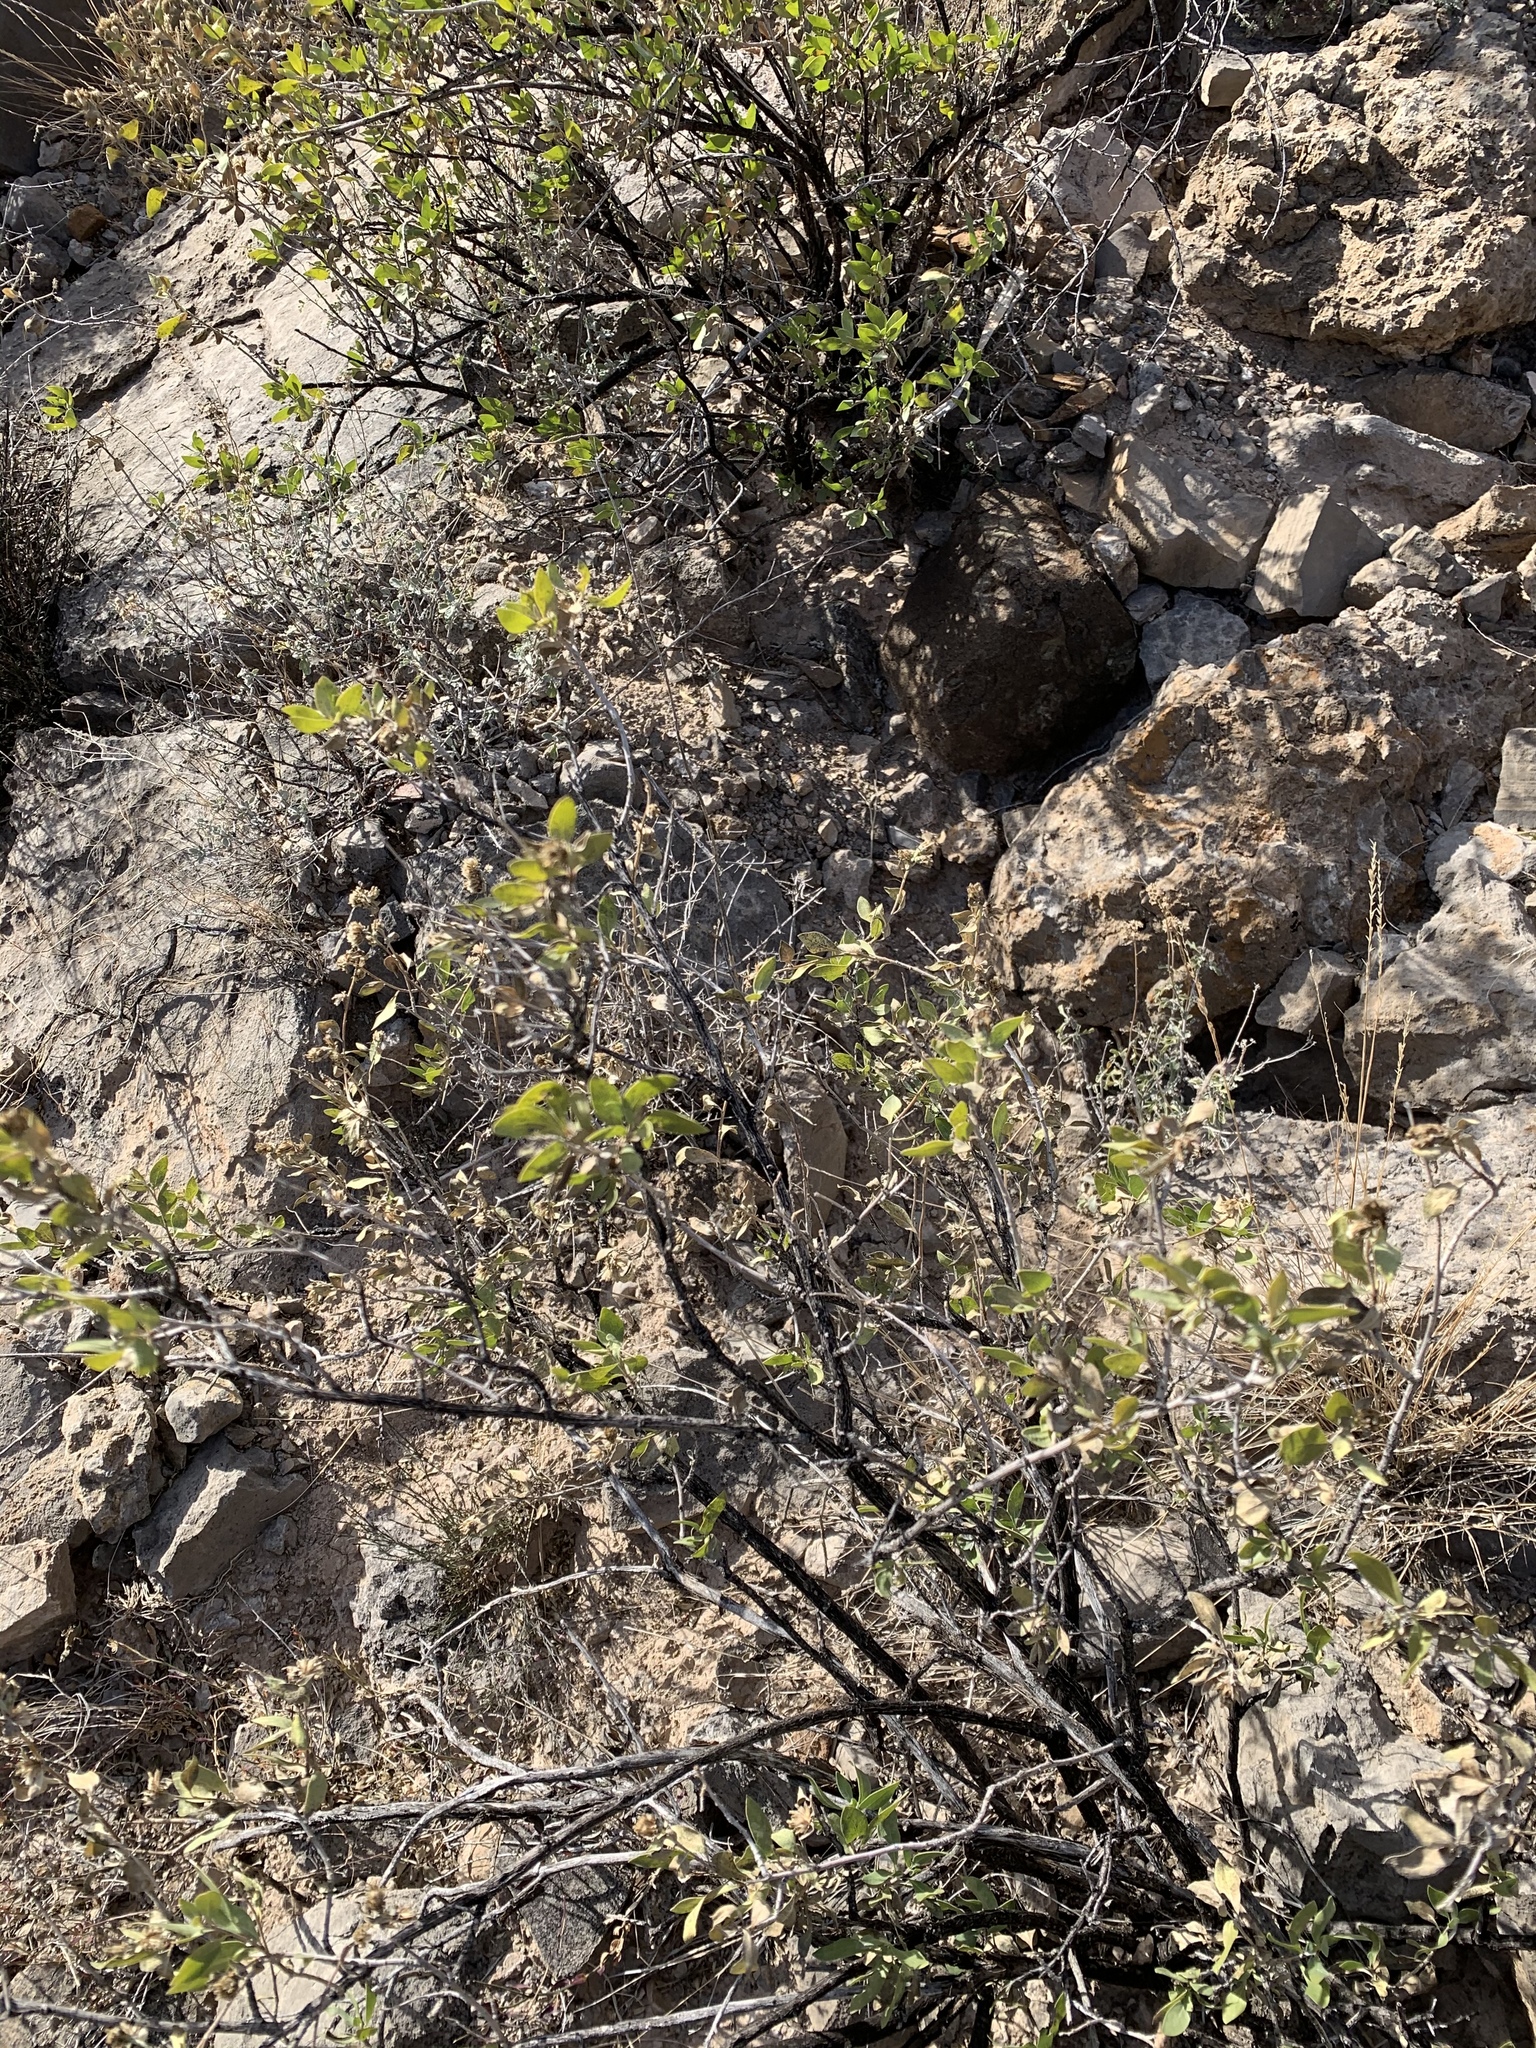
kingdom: Plantae
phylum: Tracheophyta
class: Magnoliopsida
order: Asterales
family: Asteraceae
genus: Flourensia
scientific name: Flourensia cernua
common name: Varnishbush
